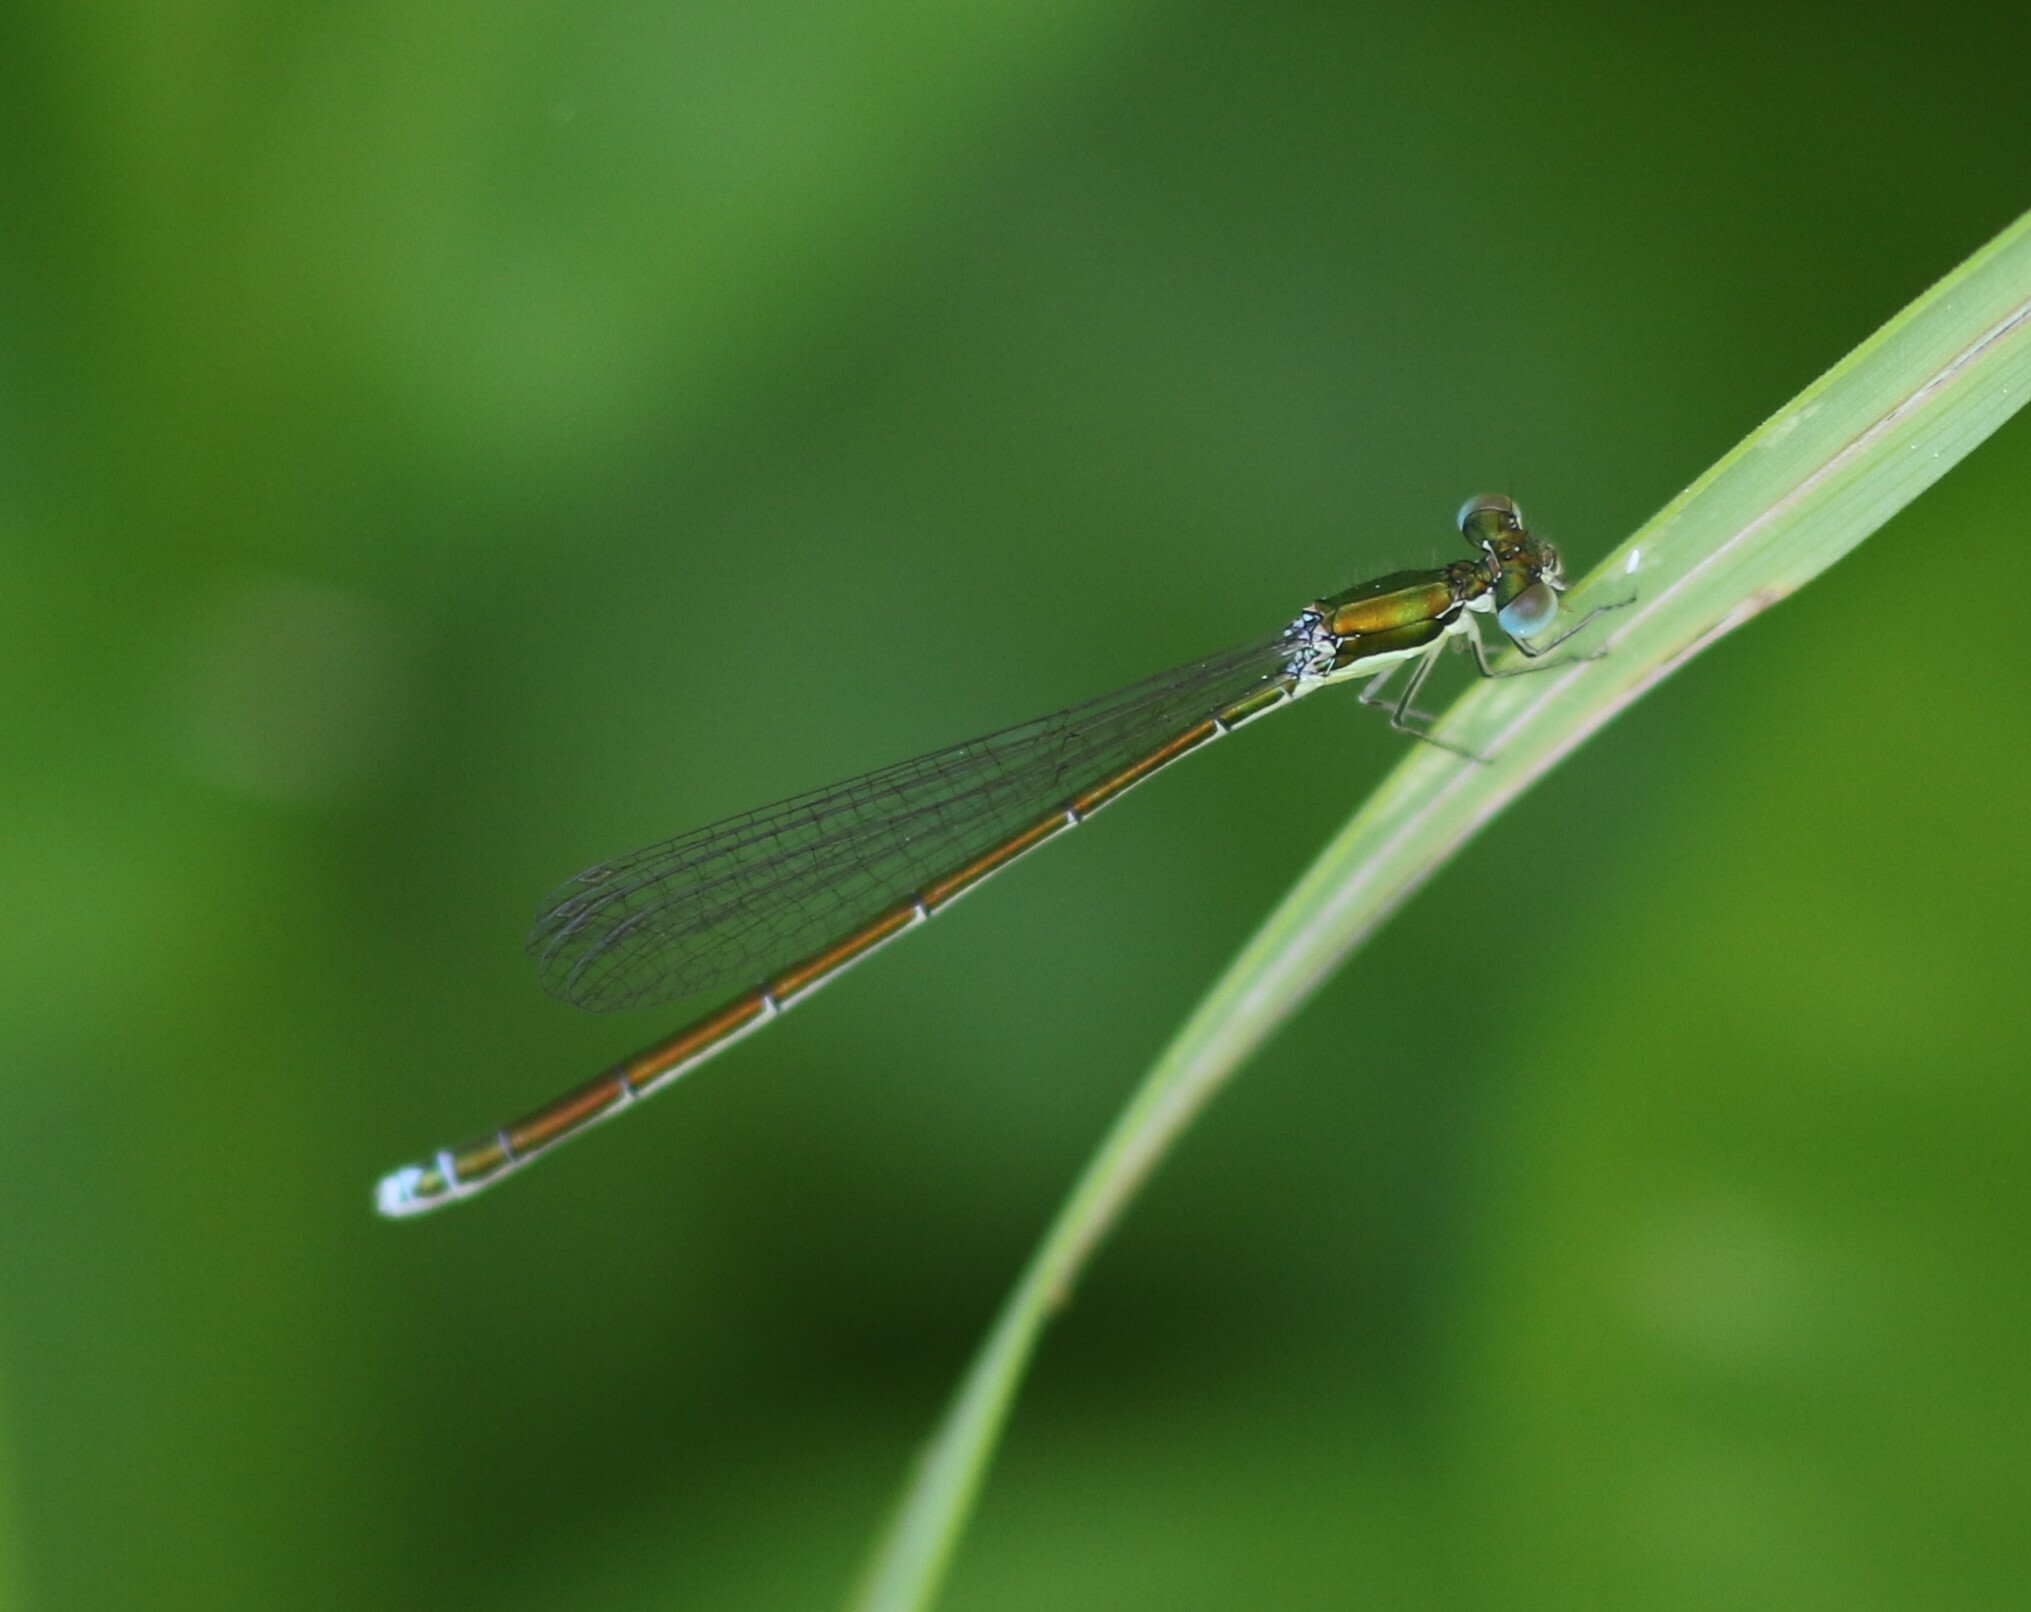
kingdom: Animalia
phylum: Arthropoda
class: Insecta
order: Odonata
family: Coenagrionidae
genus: Nehalennia
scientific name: Nehalennia irene
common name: Sedge sprite
